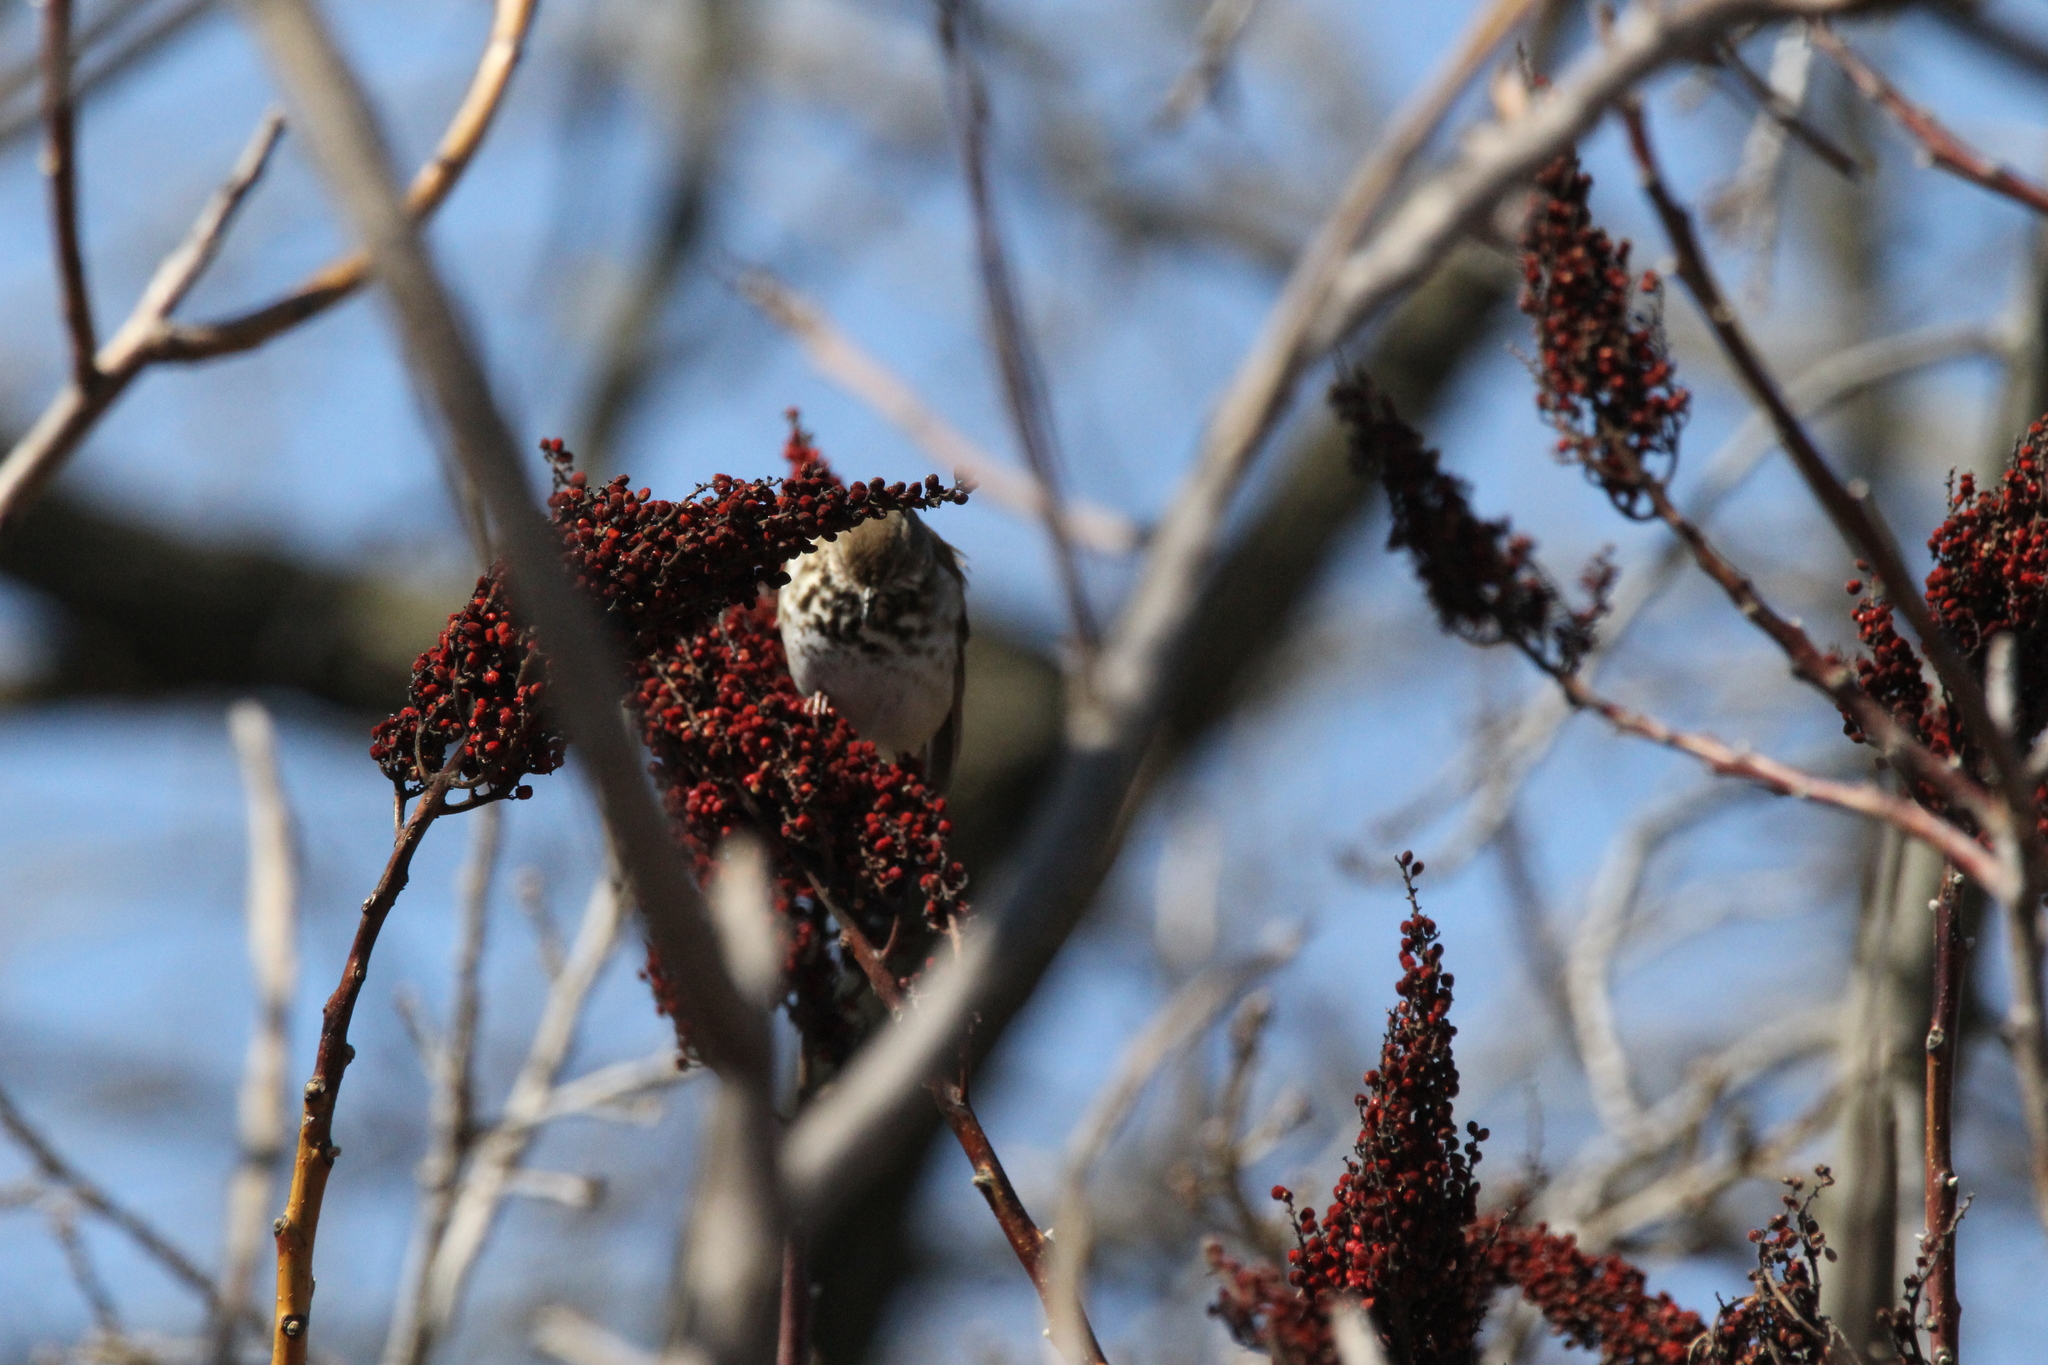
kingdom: Animalia
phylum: Chordata
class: Aves
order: Passeriformes
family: Turdidae
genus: Catharus
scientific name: Catharus guttatus
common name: Hermit thrush
